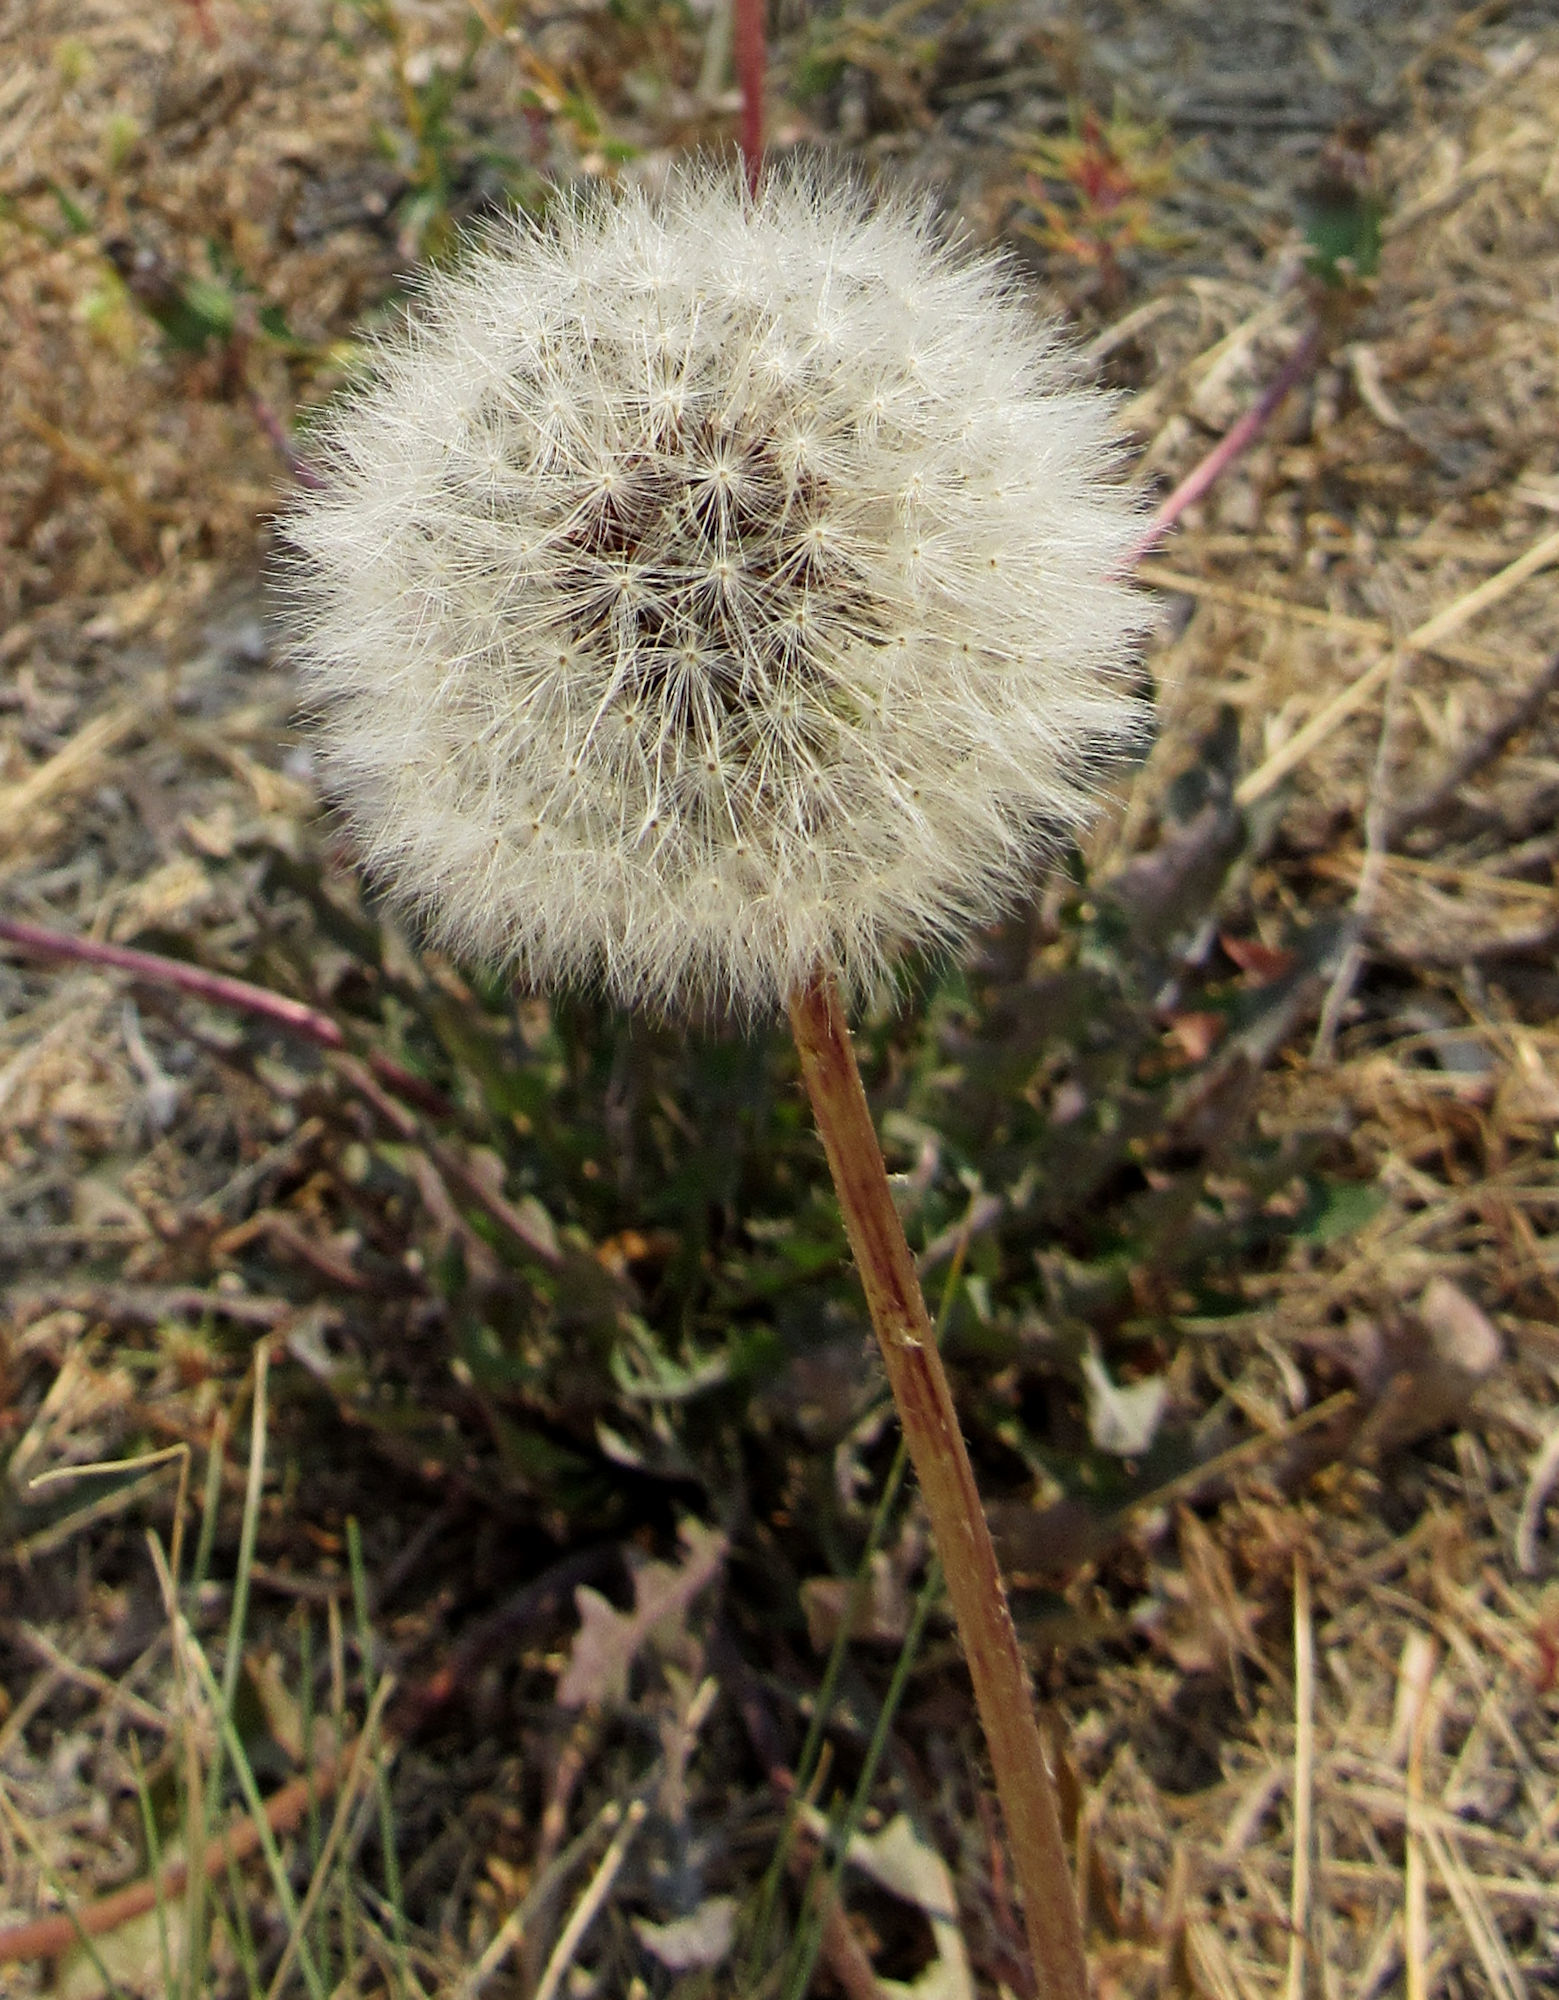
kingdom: Plantae
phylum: Tracheophyta
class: Magnoliopsida
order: Asterales
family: Asteraceae
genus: Taraxacum
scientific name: Taraxacum officinale
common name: Common dandelion
